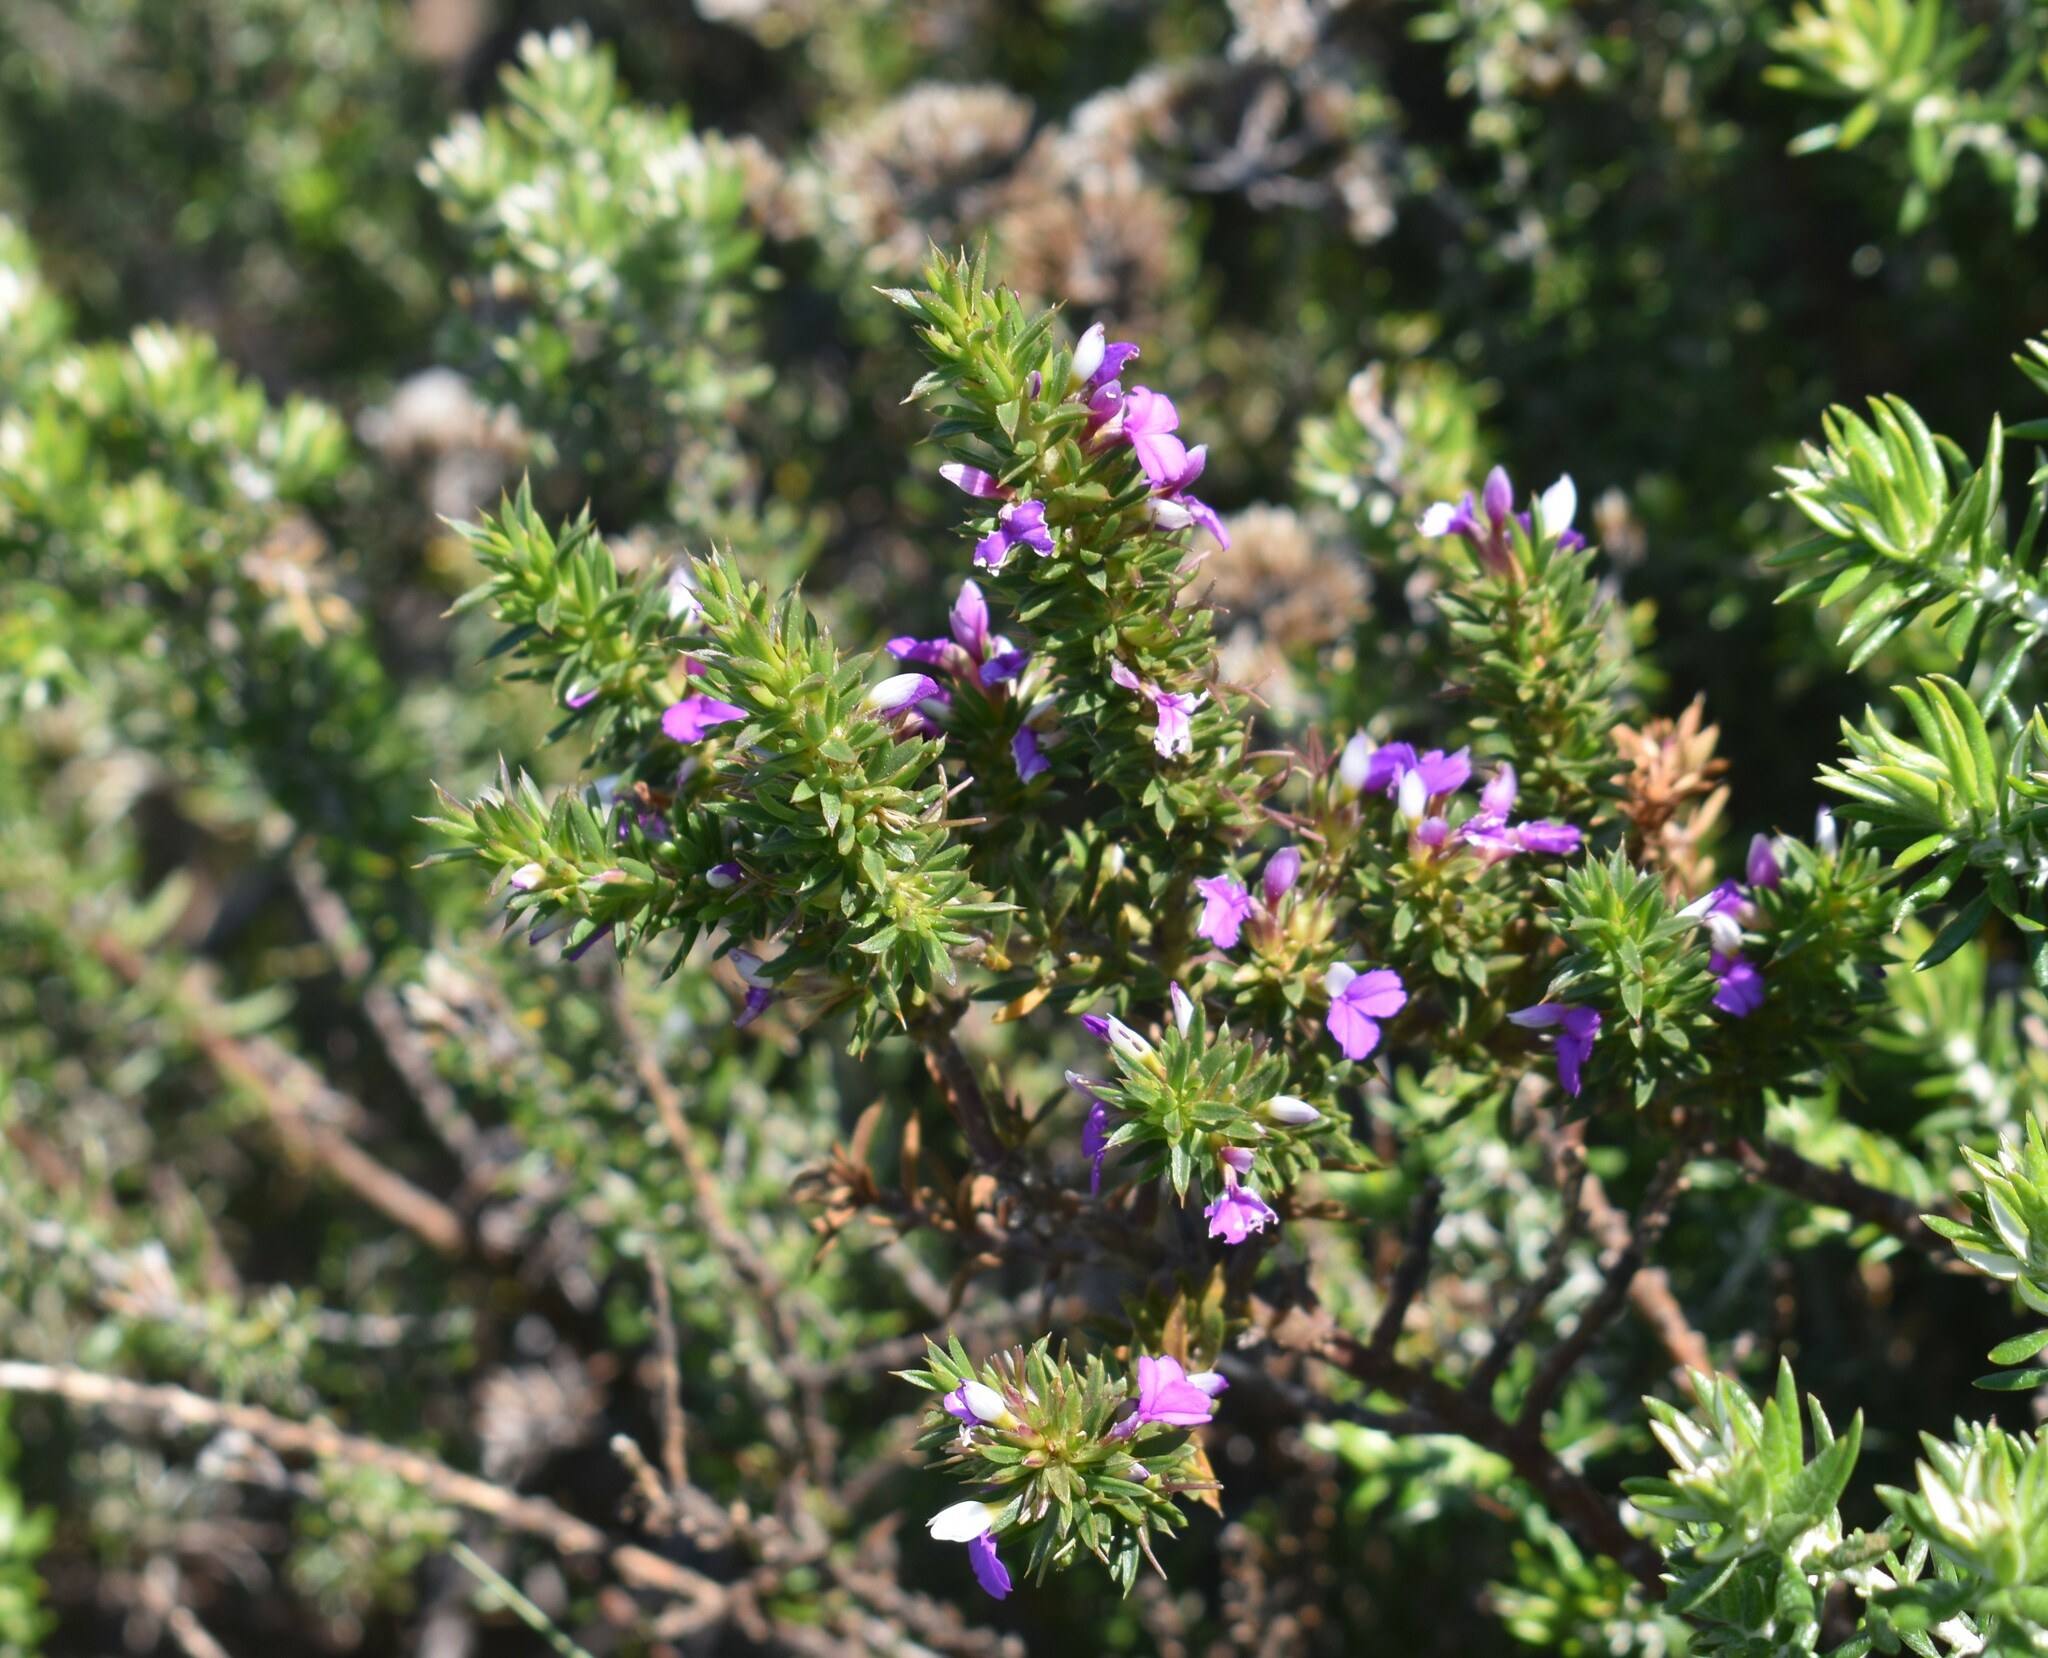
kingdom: Plantae
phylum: Tracheophyta
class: Magnoliopsida
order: Fabales
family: Polygalaceae
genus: Muraltia
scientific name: Muraltia heisteria
